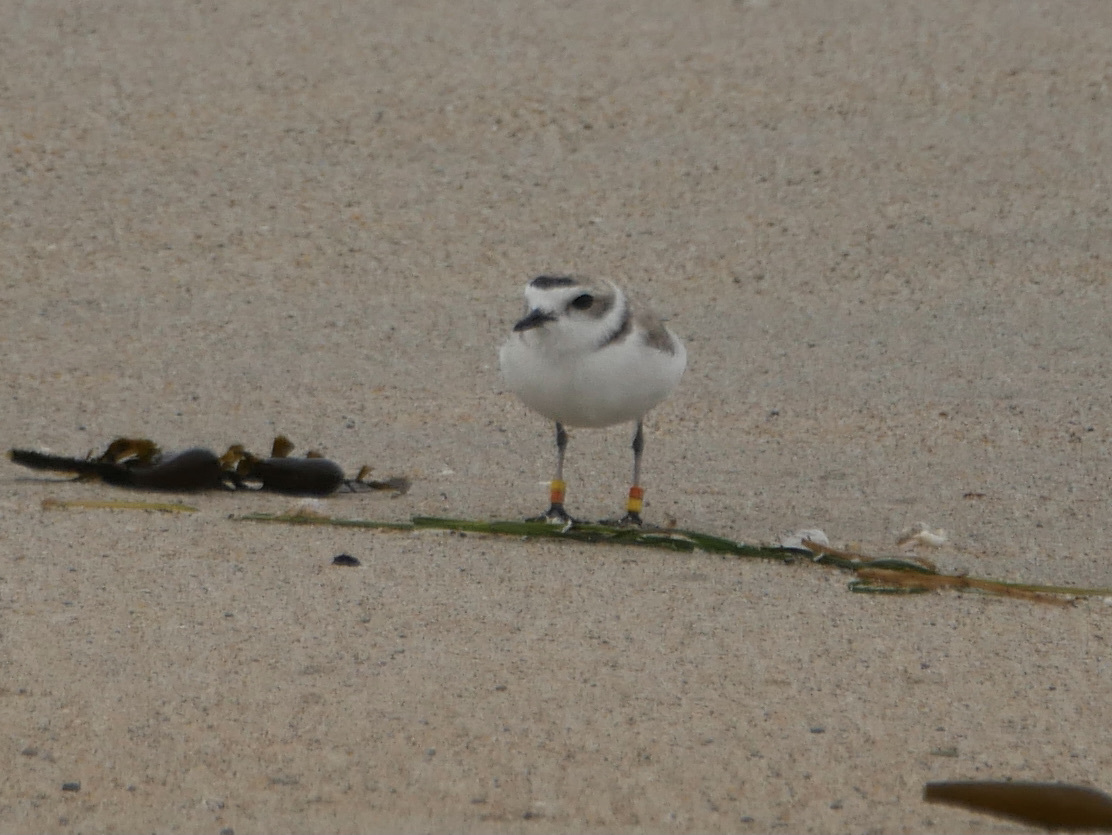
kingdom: Animalia
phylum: Chordata
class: Aves
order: Charadriiformes
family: Charadriidae
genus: Anarhynchus
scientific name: Anarhynchus
